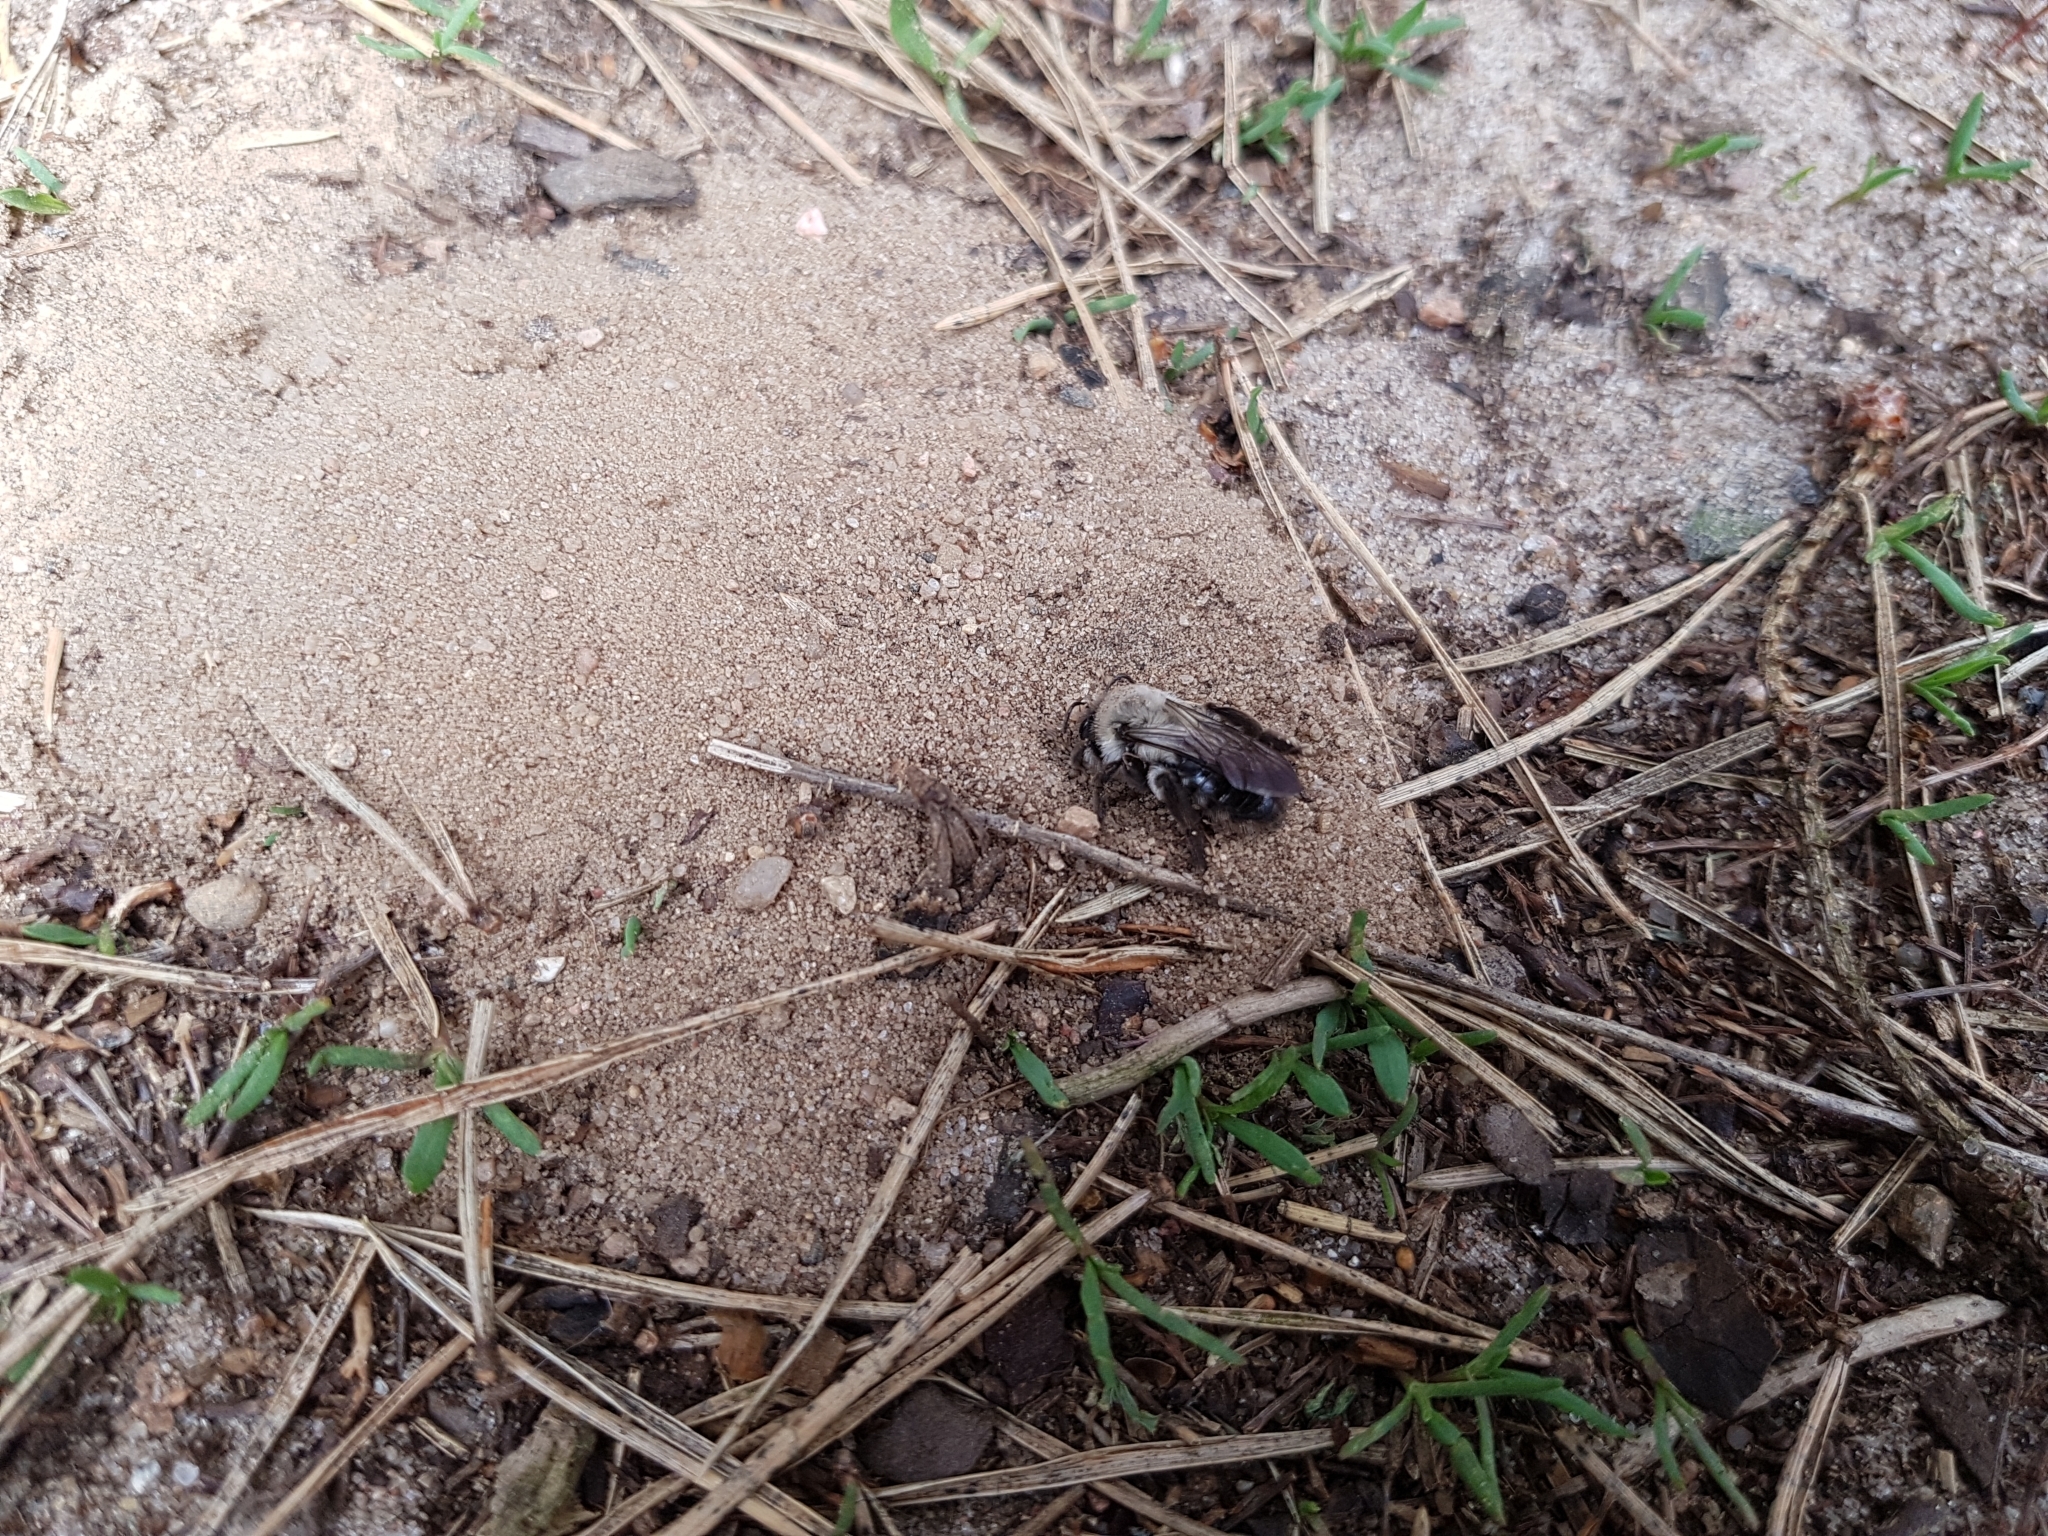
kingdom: Animalia
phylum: Arthropoda
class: Insecta
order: Hymenoptera
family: Andrenidae
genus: Andrena
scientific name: Andrena vaga
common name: Grey-backed mining bee
